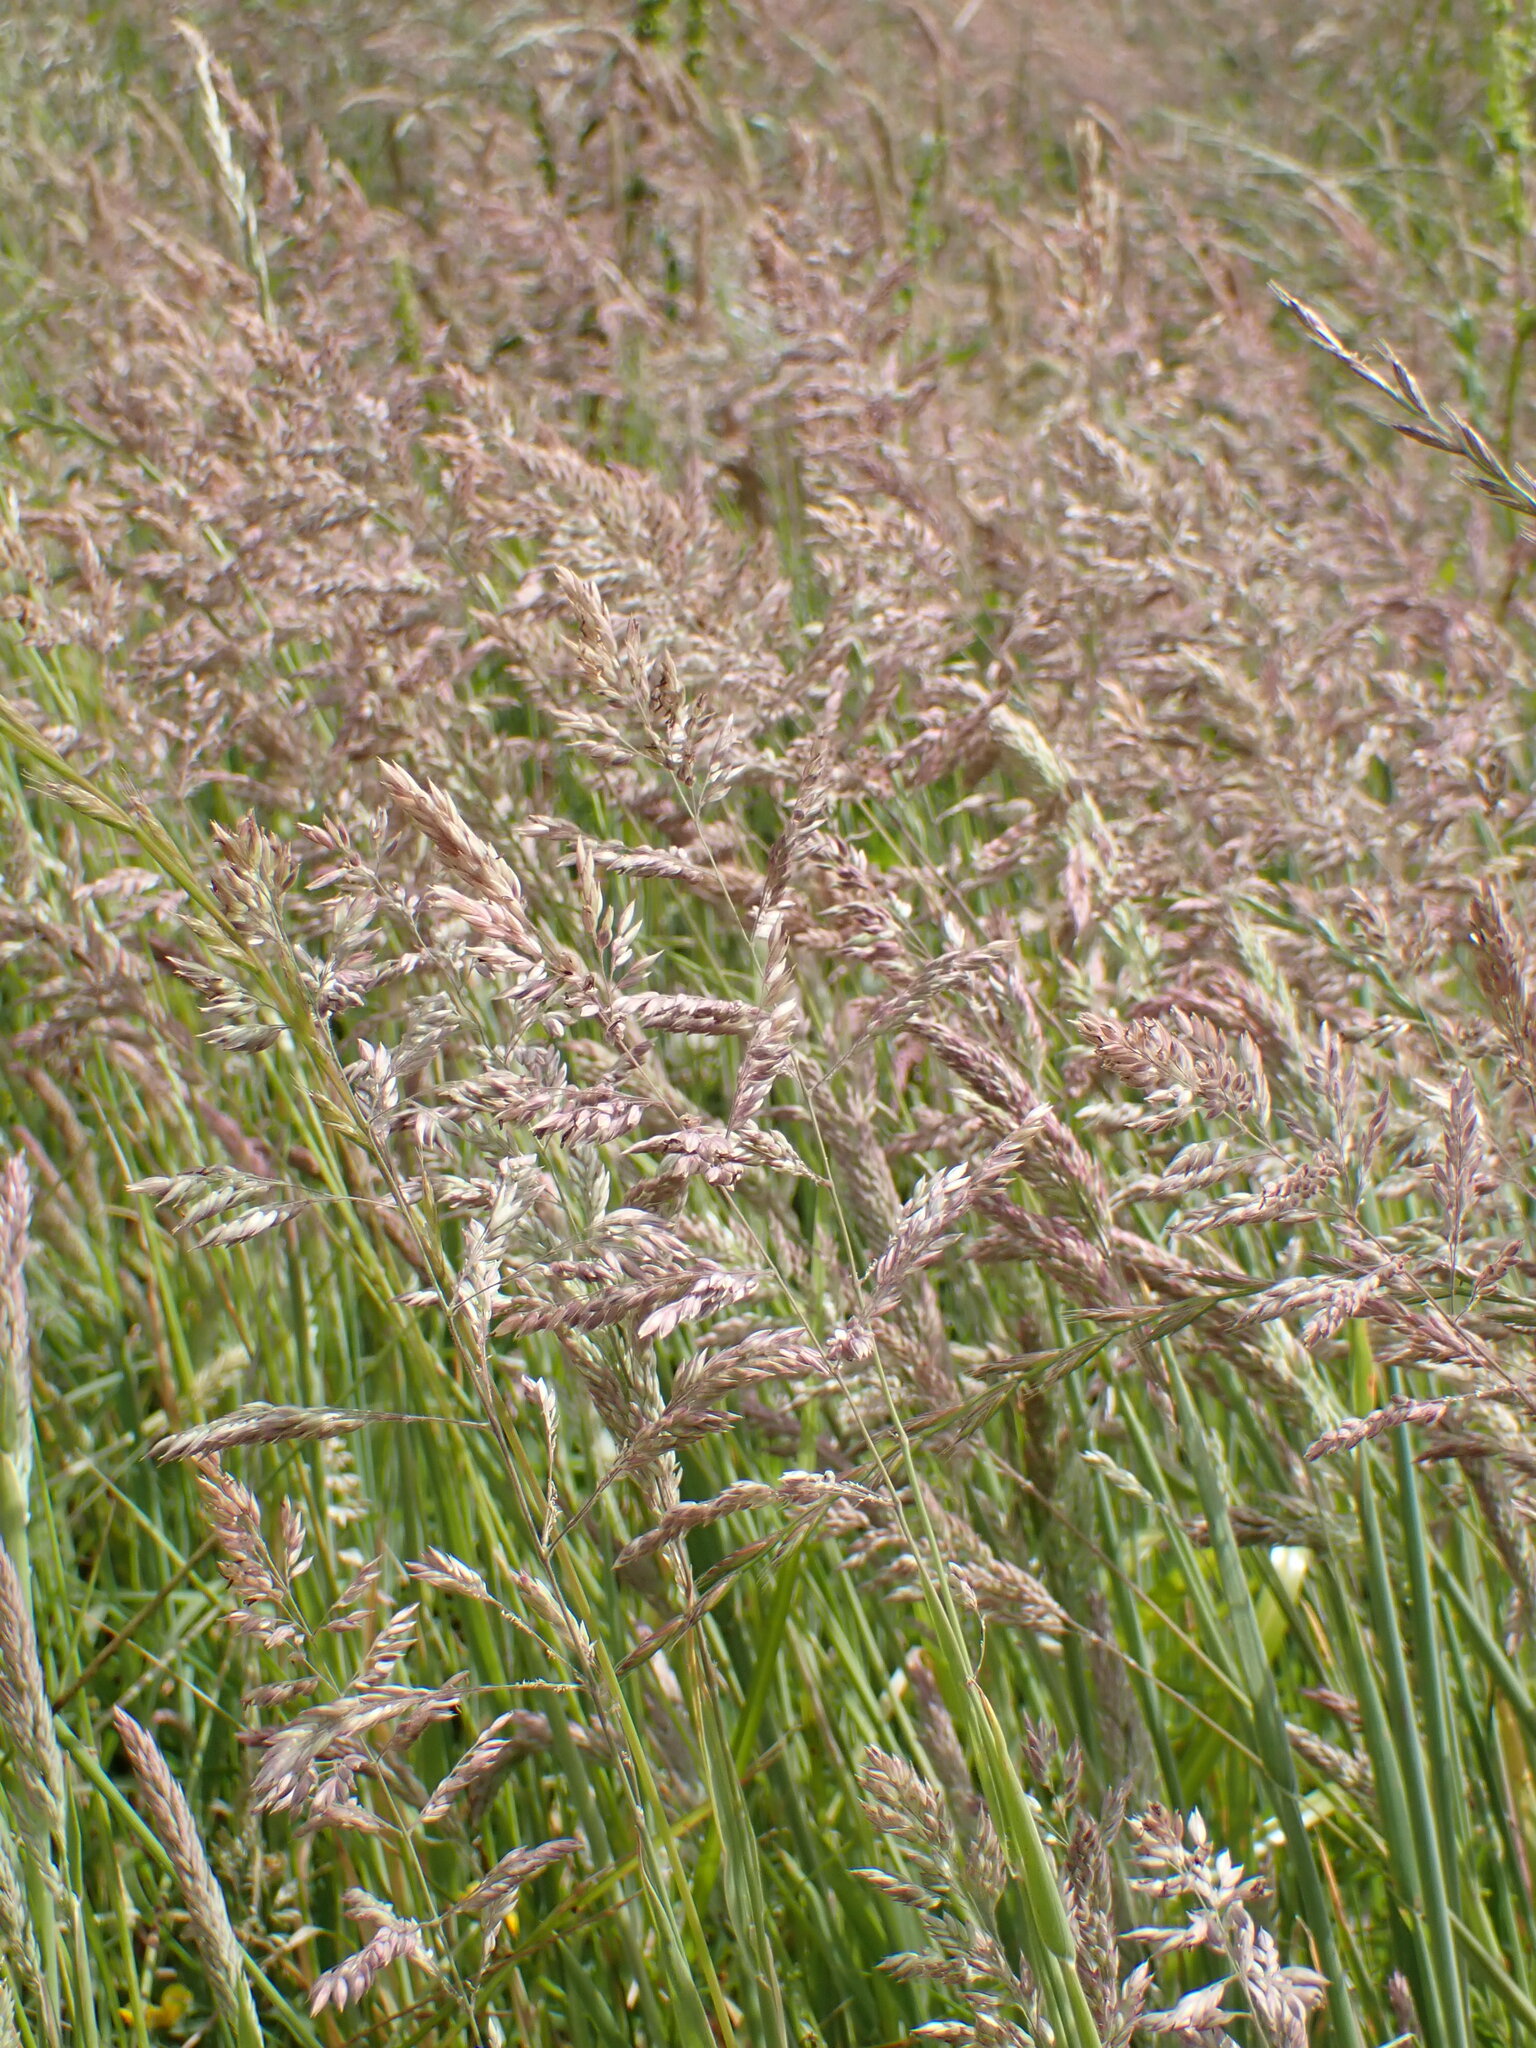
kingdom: Plantae
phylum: Tracheophyta
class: Liliopsida
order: Poales
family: Poaceae
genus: Holcus
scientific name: Holcus lanatus
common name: Yorkshire-fog
